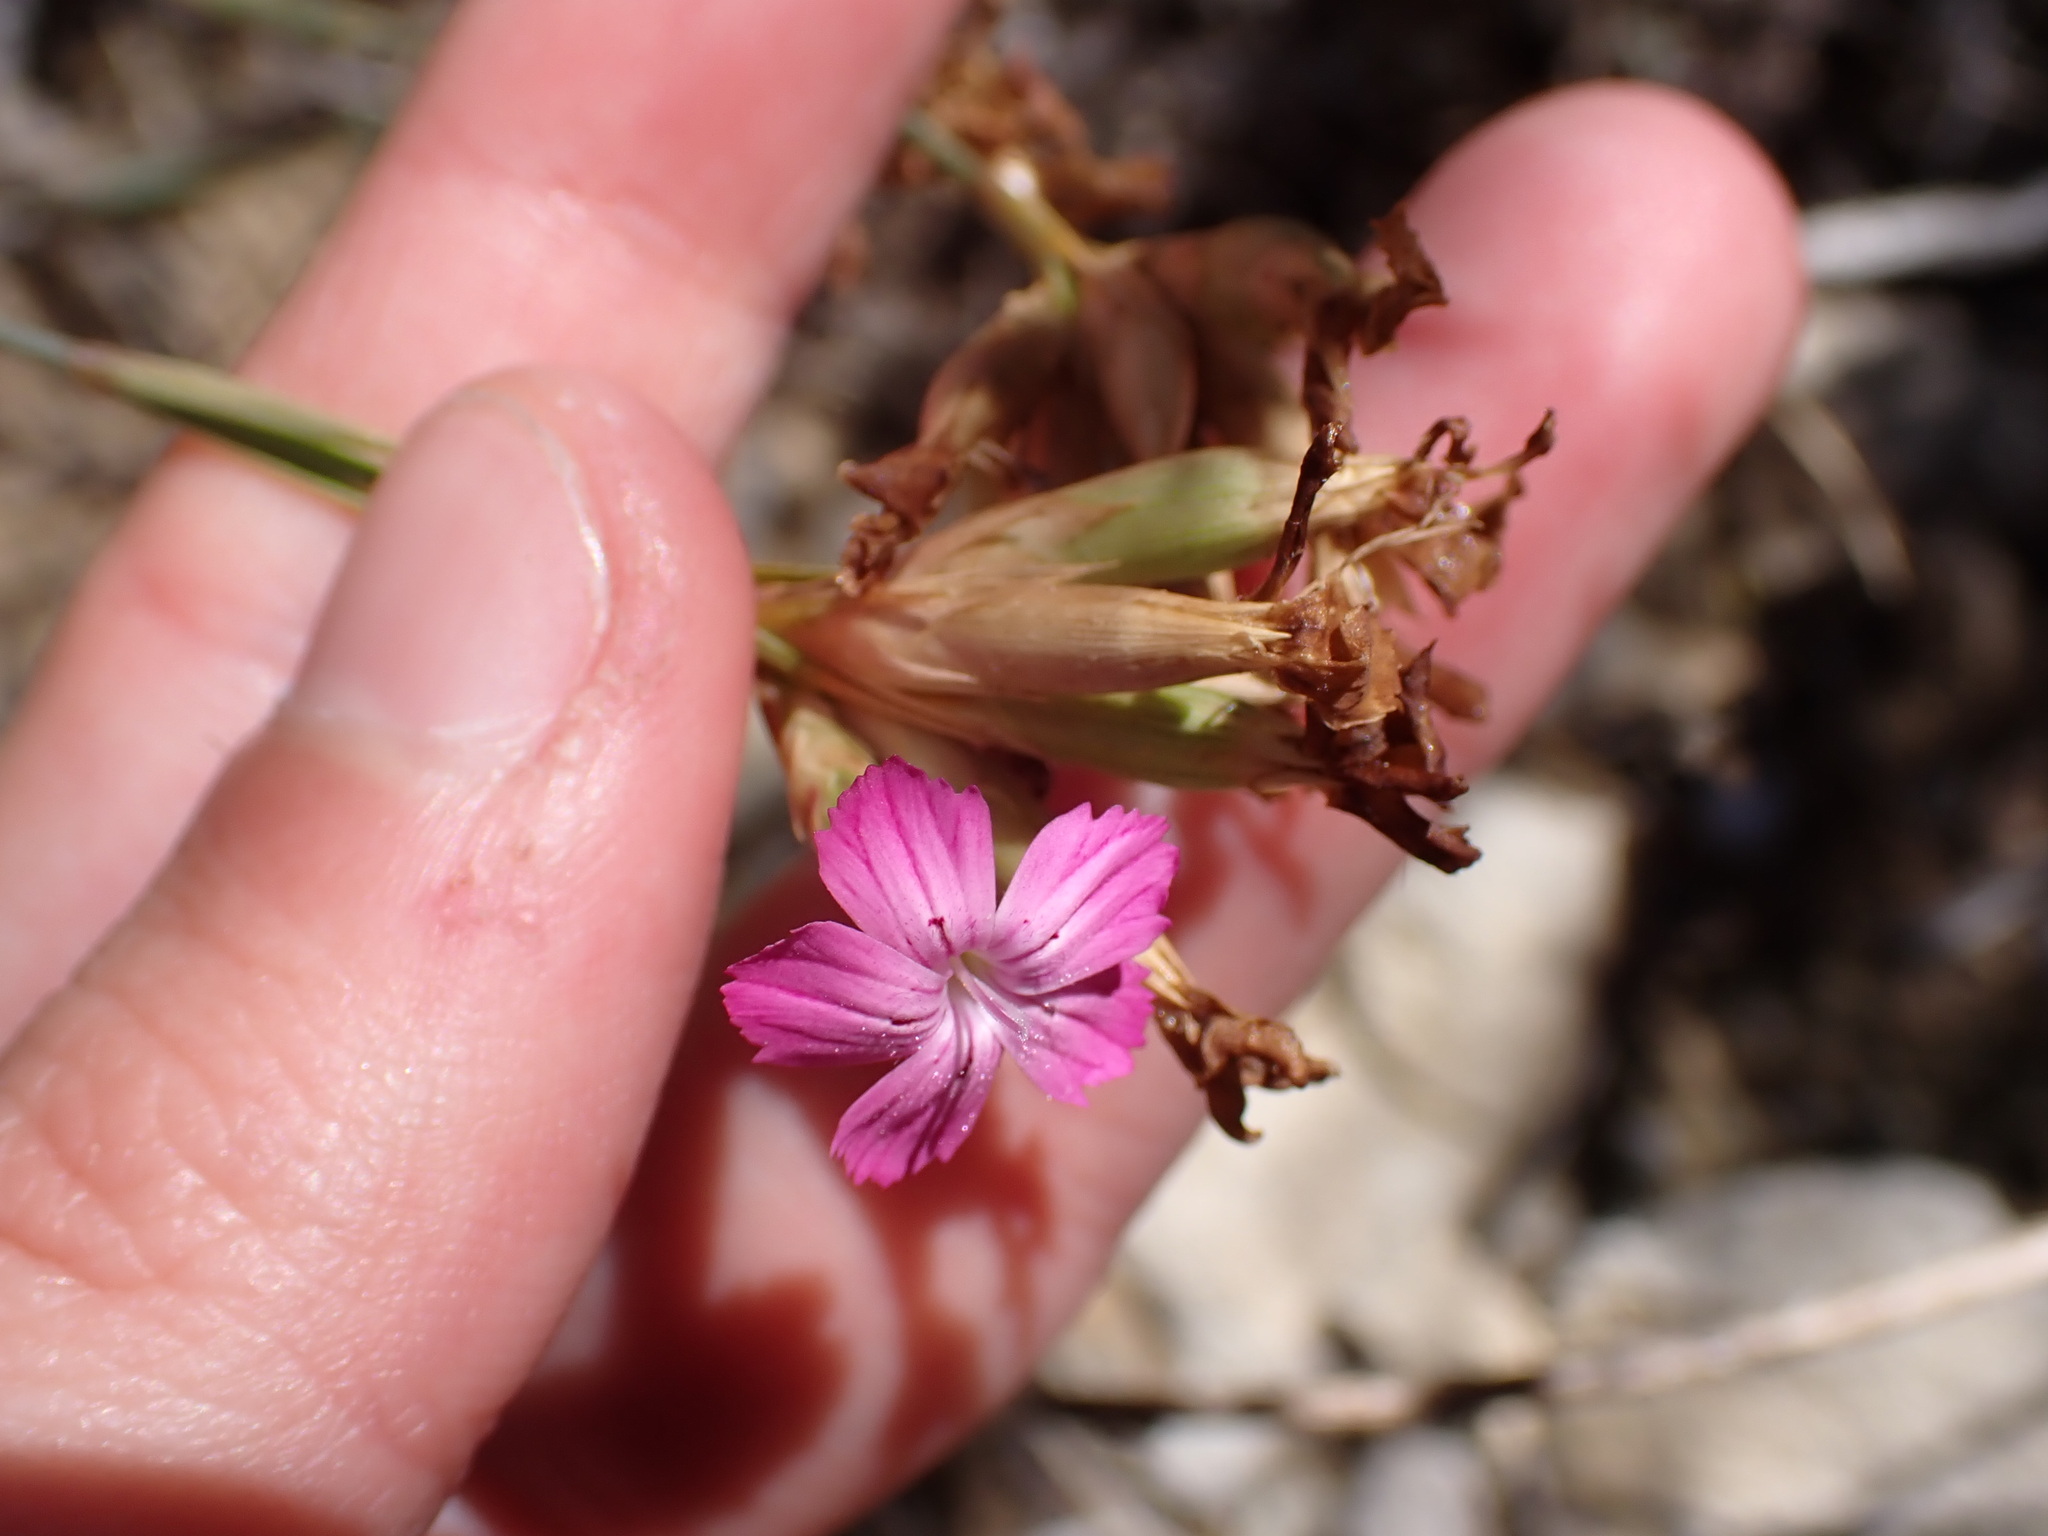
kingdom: Plantae
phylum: Tracheophyta
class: Magnoliopsida
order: Caryophyllales
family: Caryophyllaceae
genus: Dianthus
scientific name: Dianthus scaber
